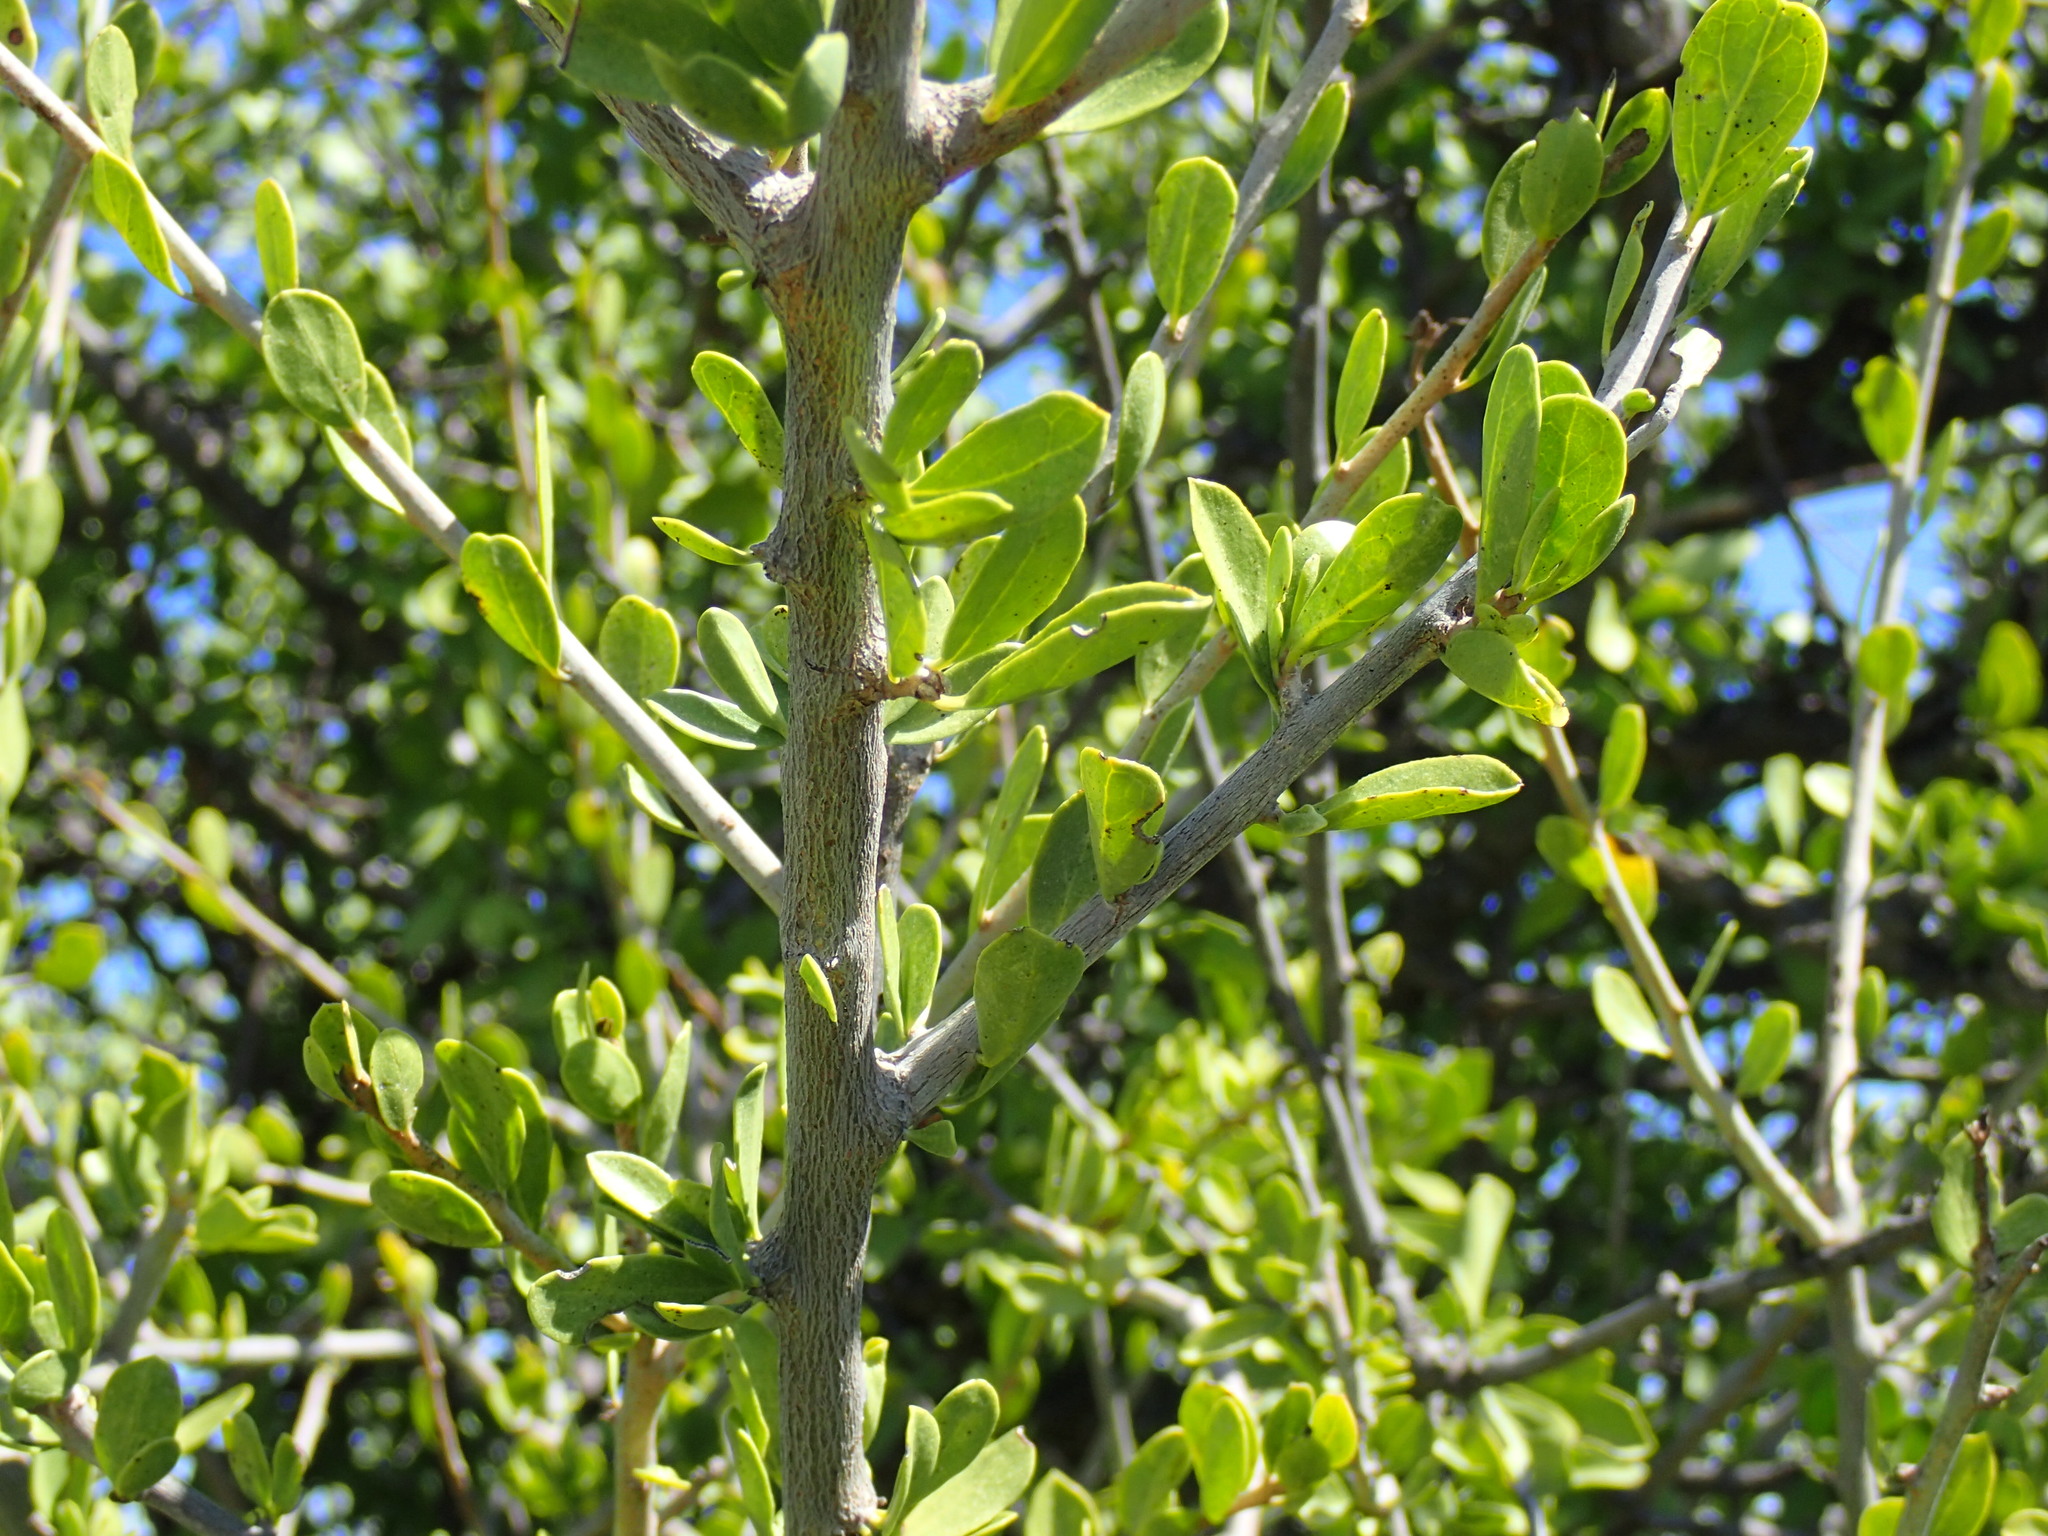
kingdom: Plantae
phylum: Tracheophyta
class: Magnoliopsida
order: Boraginales
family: Ehretiaceae
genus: Ehretia
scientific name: Ehretia rigida
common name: Cape lilac
